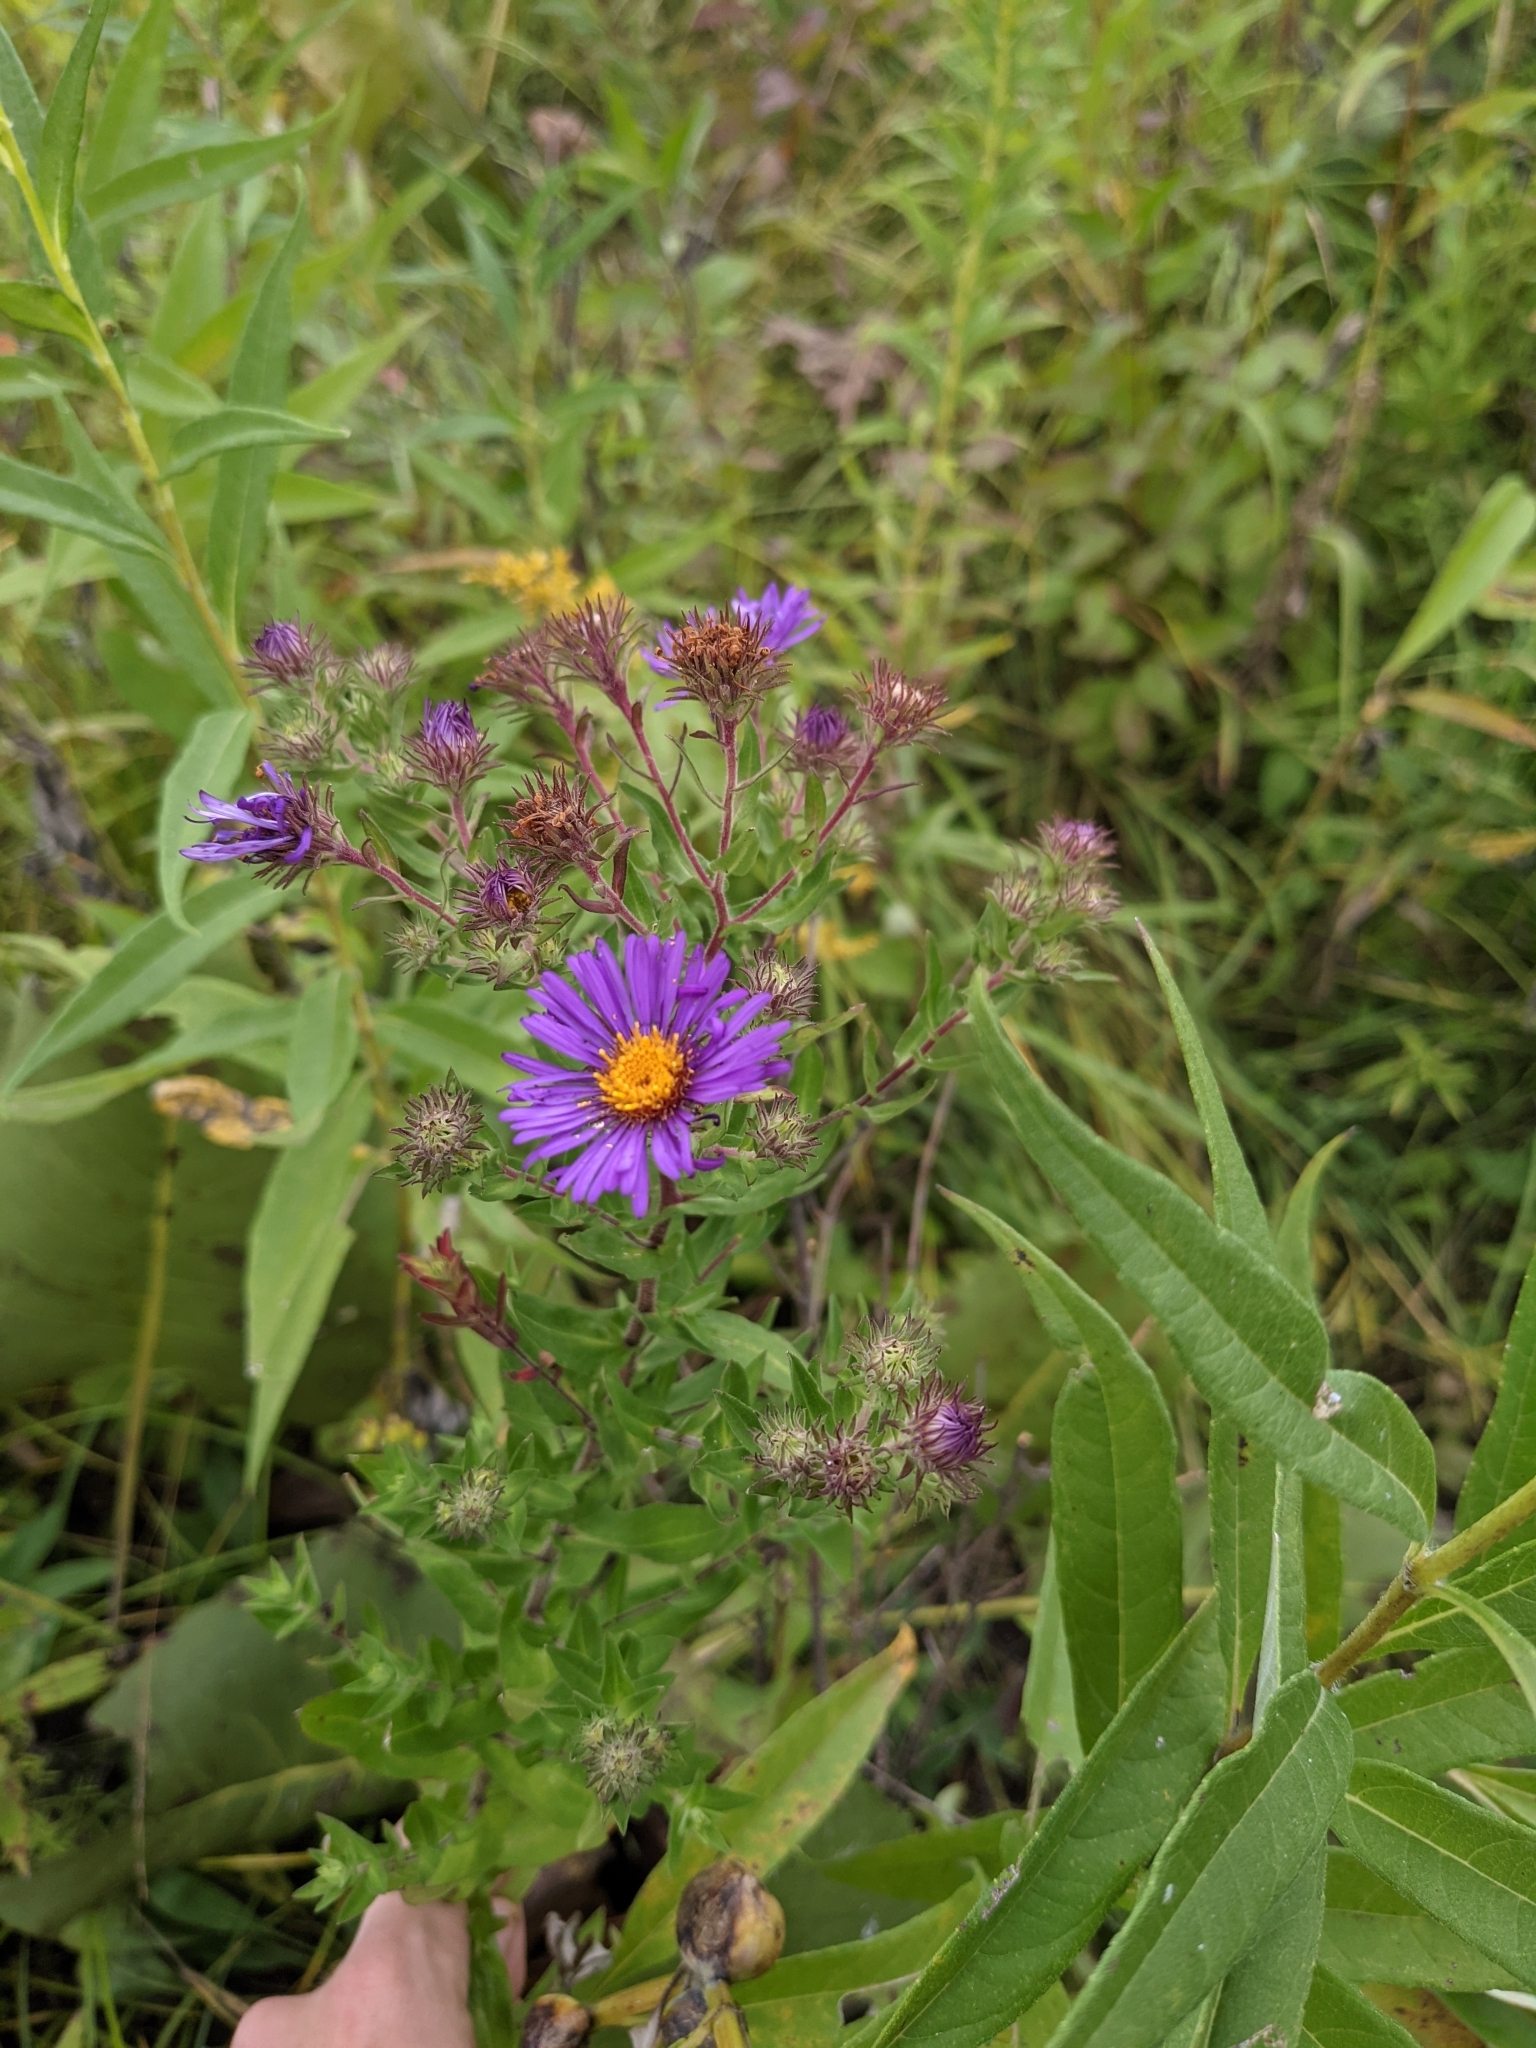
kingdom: Plantae
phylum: Tracheophyta
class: Magnoliopsida
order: Asterales
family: Asteraceae
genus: Symphyotrichum
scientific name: Symphyotrichum novae-angliae
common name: Michaelmas daisy
